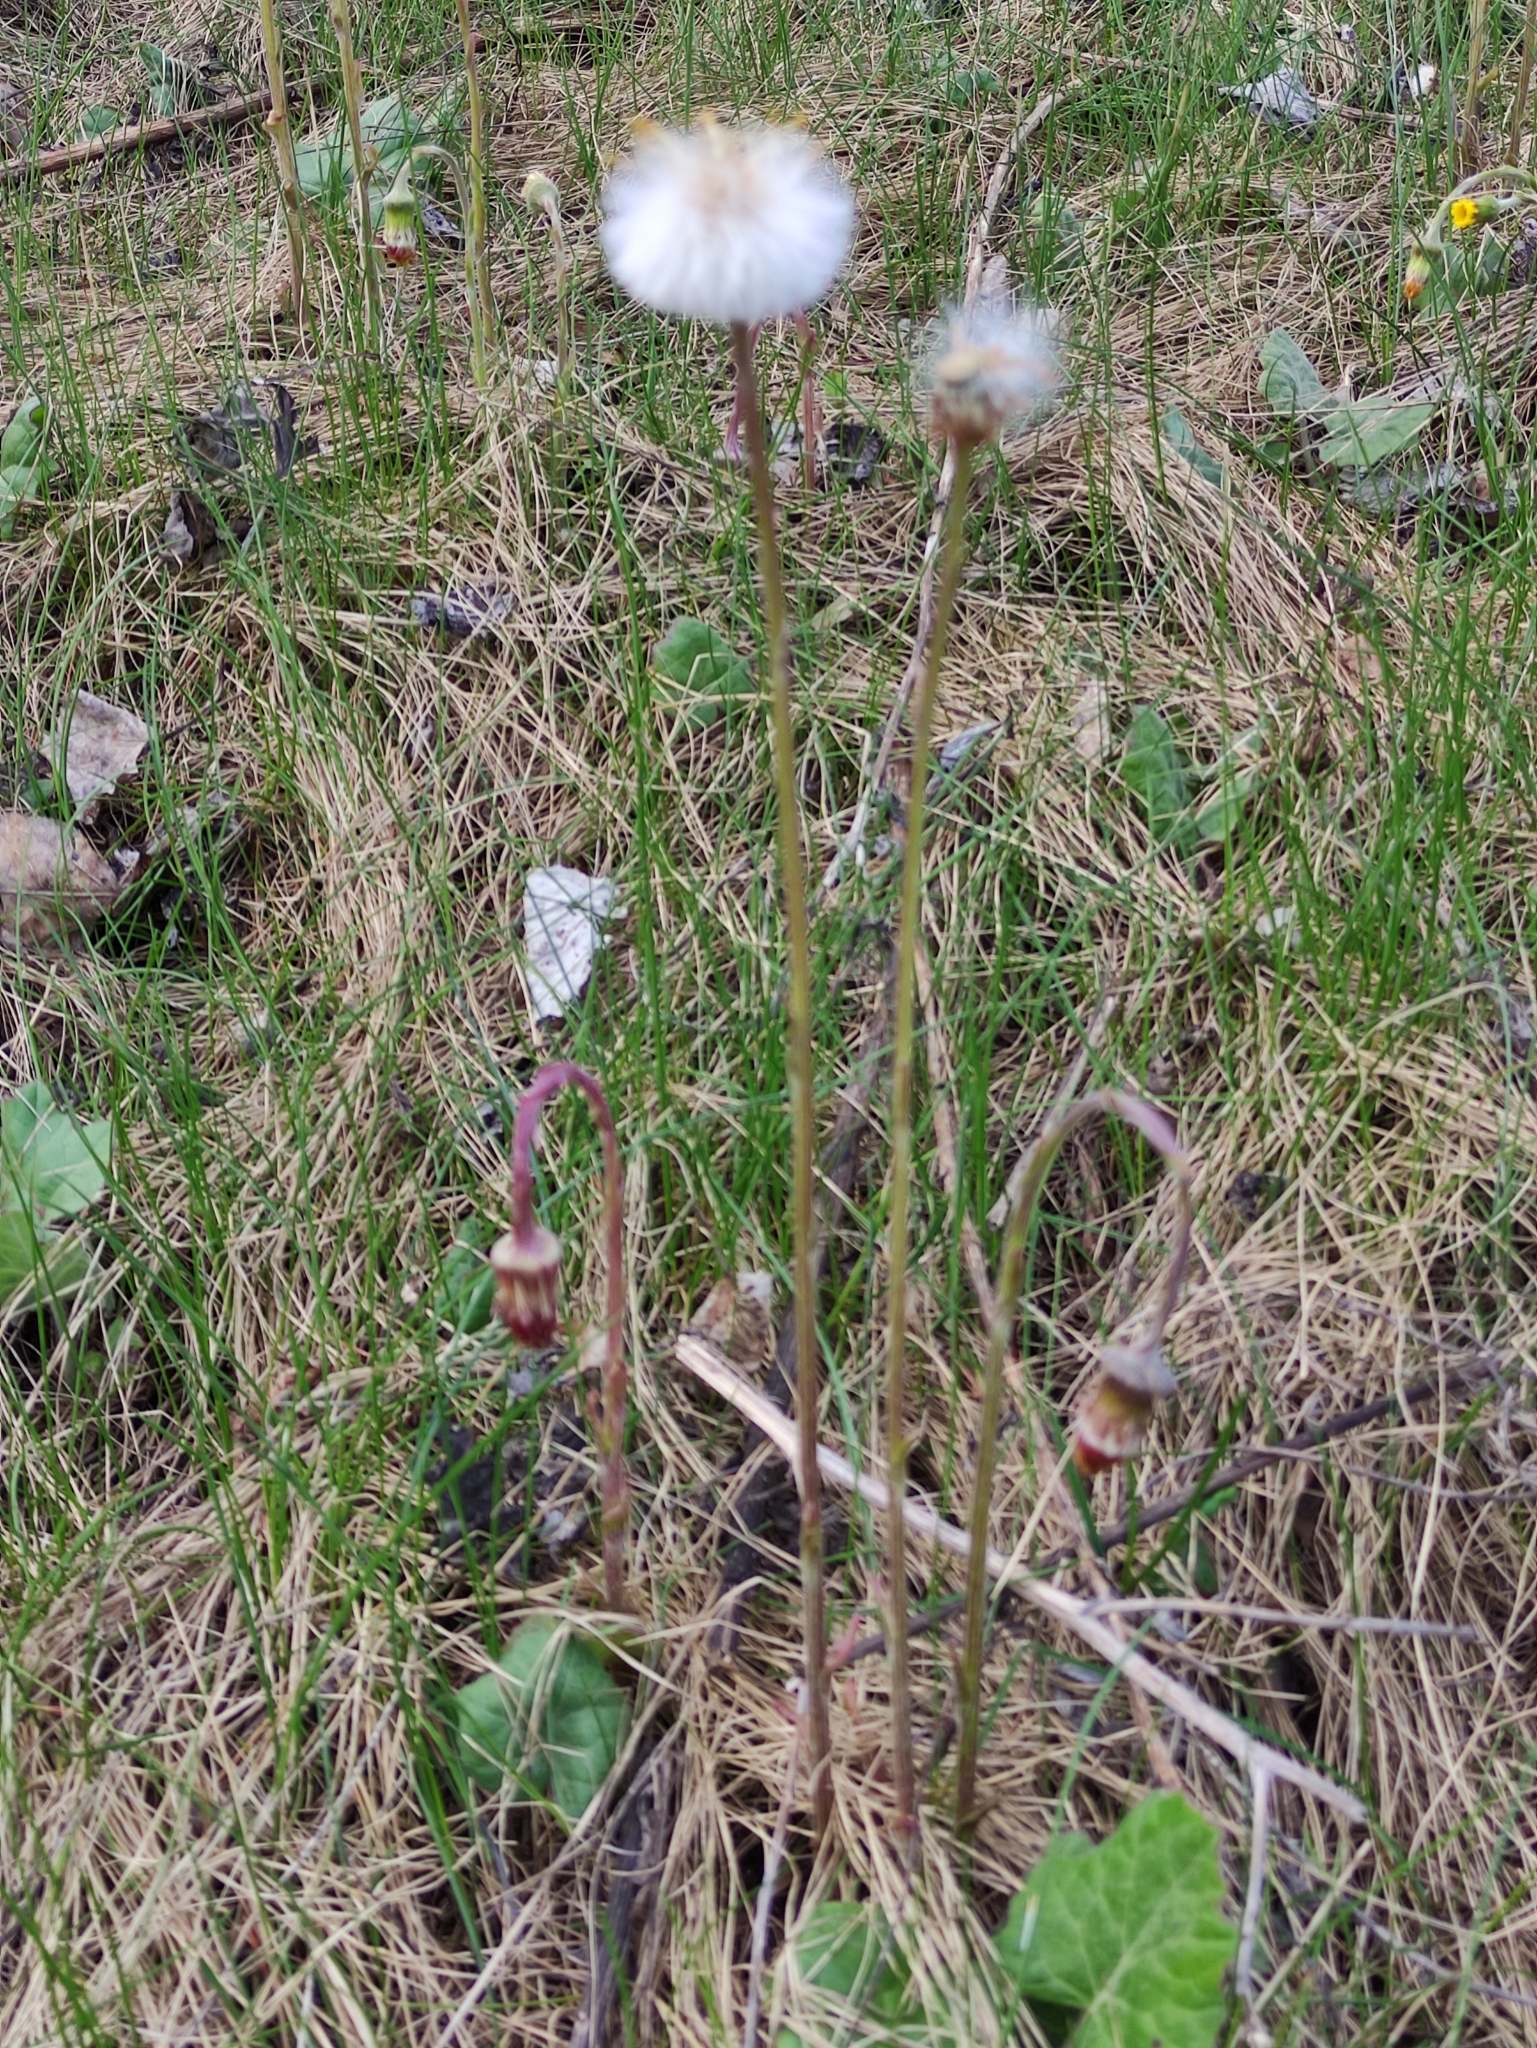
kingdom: Plantae
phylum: Tracheophyta
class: Magnoliopsida
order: Asterales
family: Asteraceae
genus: Tussilago
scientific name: Tussilago farfara
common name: Coltsfoot
